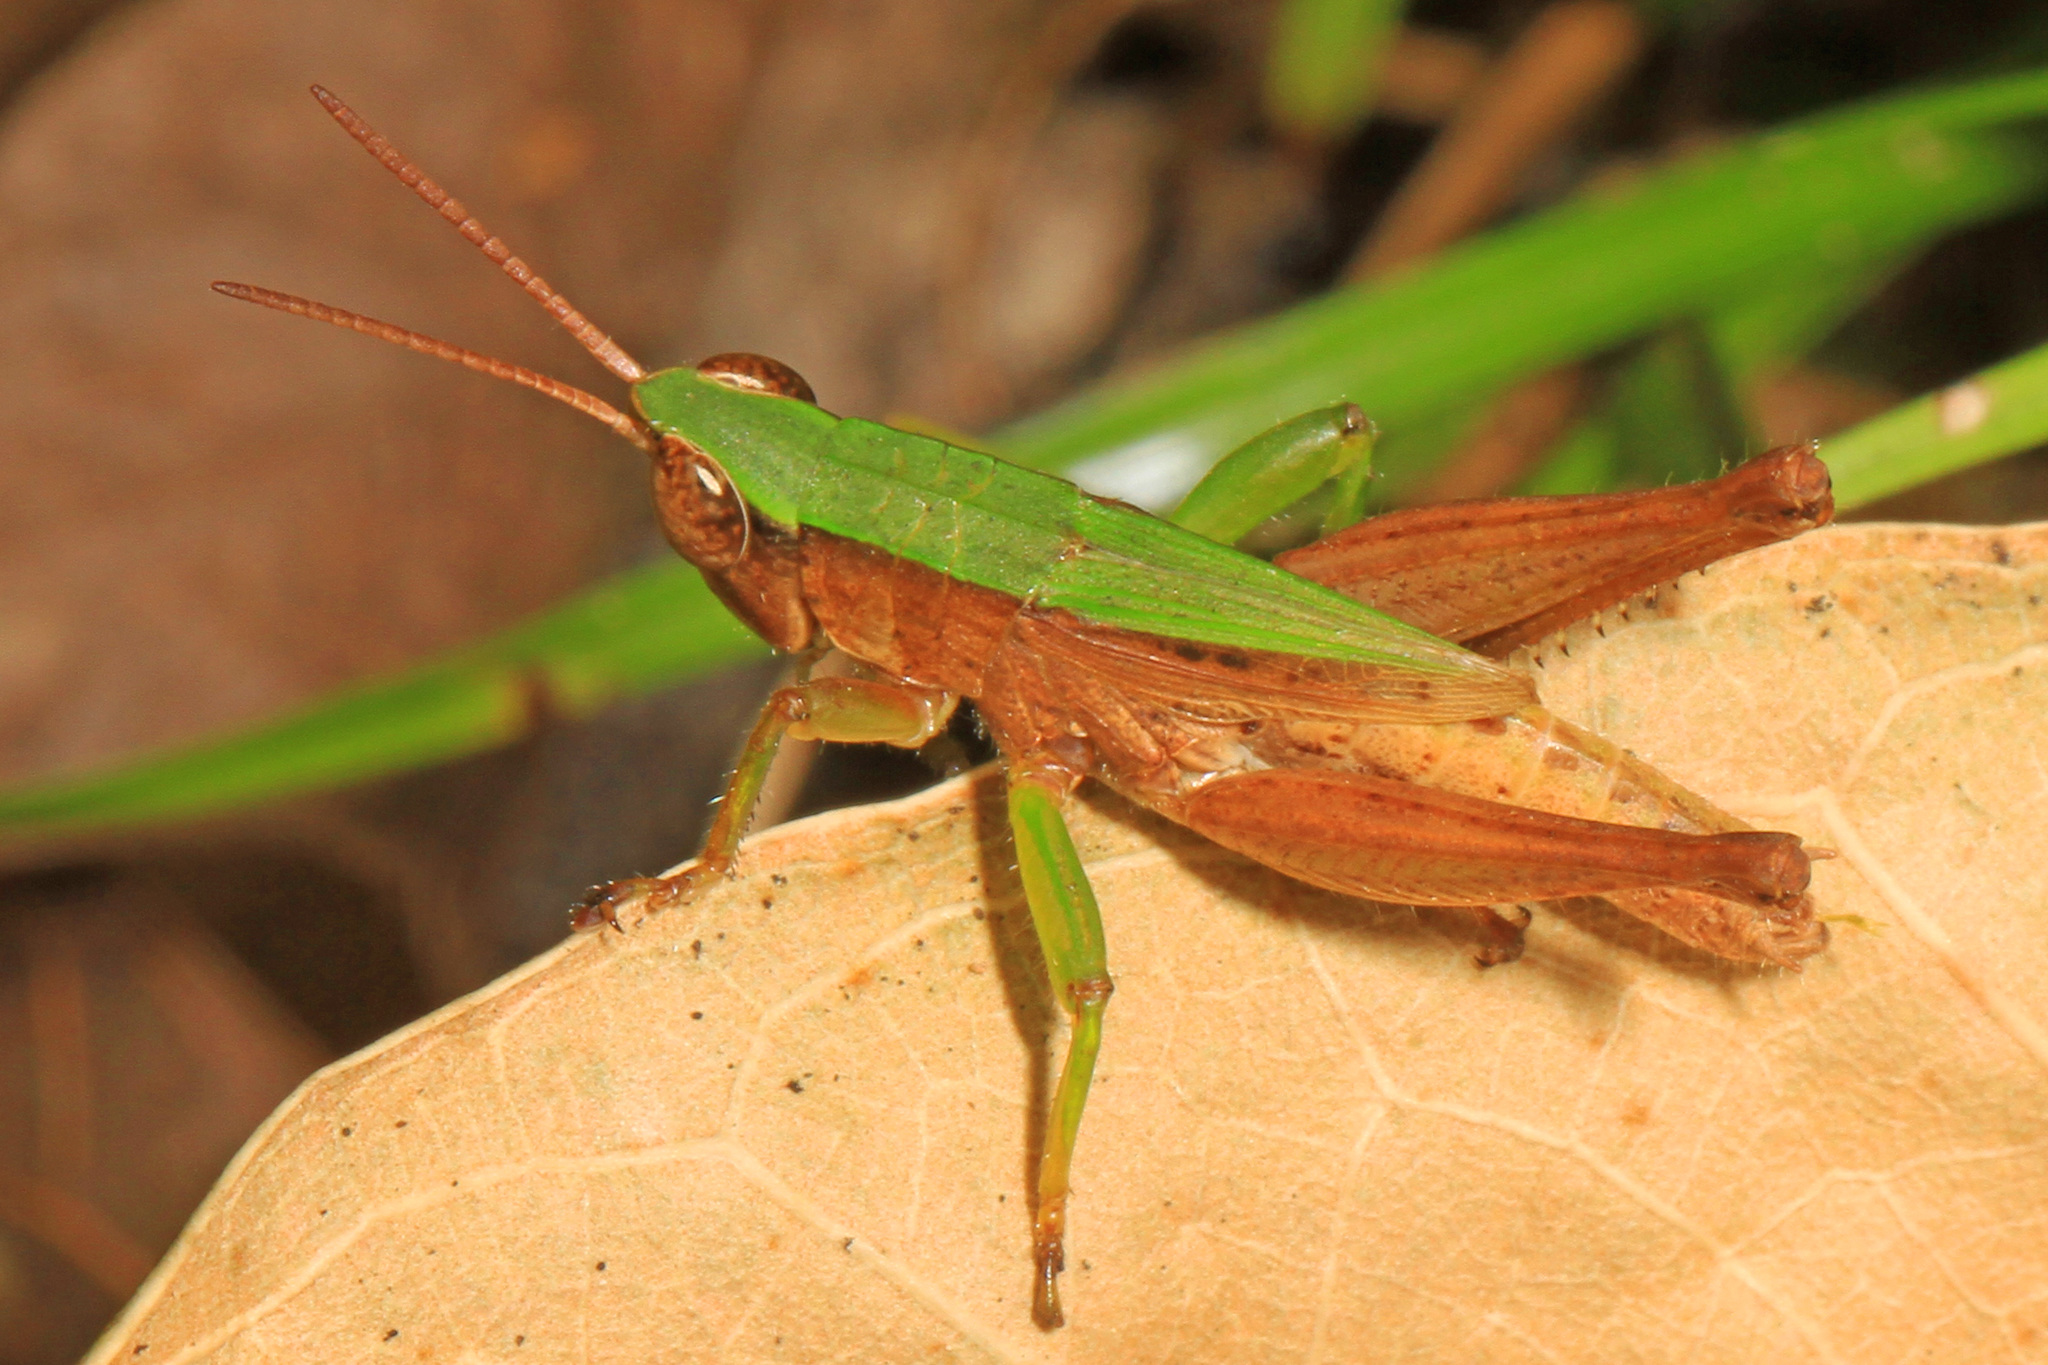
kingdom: Animalia
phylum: Arthropoda
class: Insecta
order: Orthoptera
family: Acrididae
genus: Dichromorpha
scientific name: Dichromorpha viridis
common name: Short-winged green grasshopper
